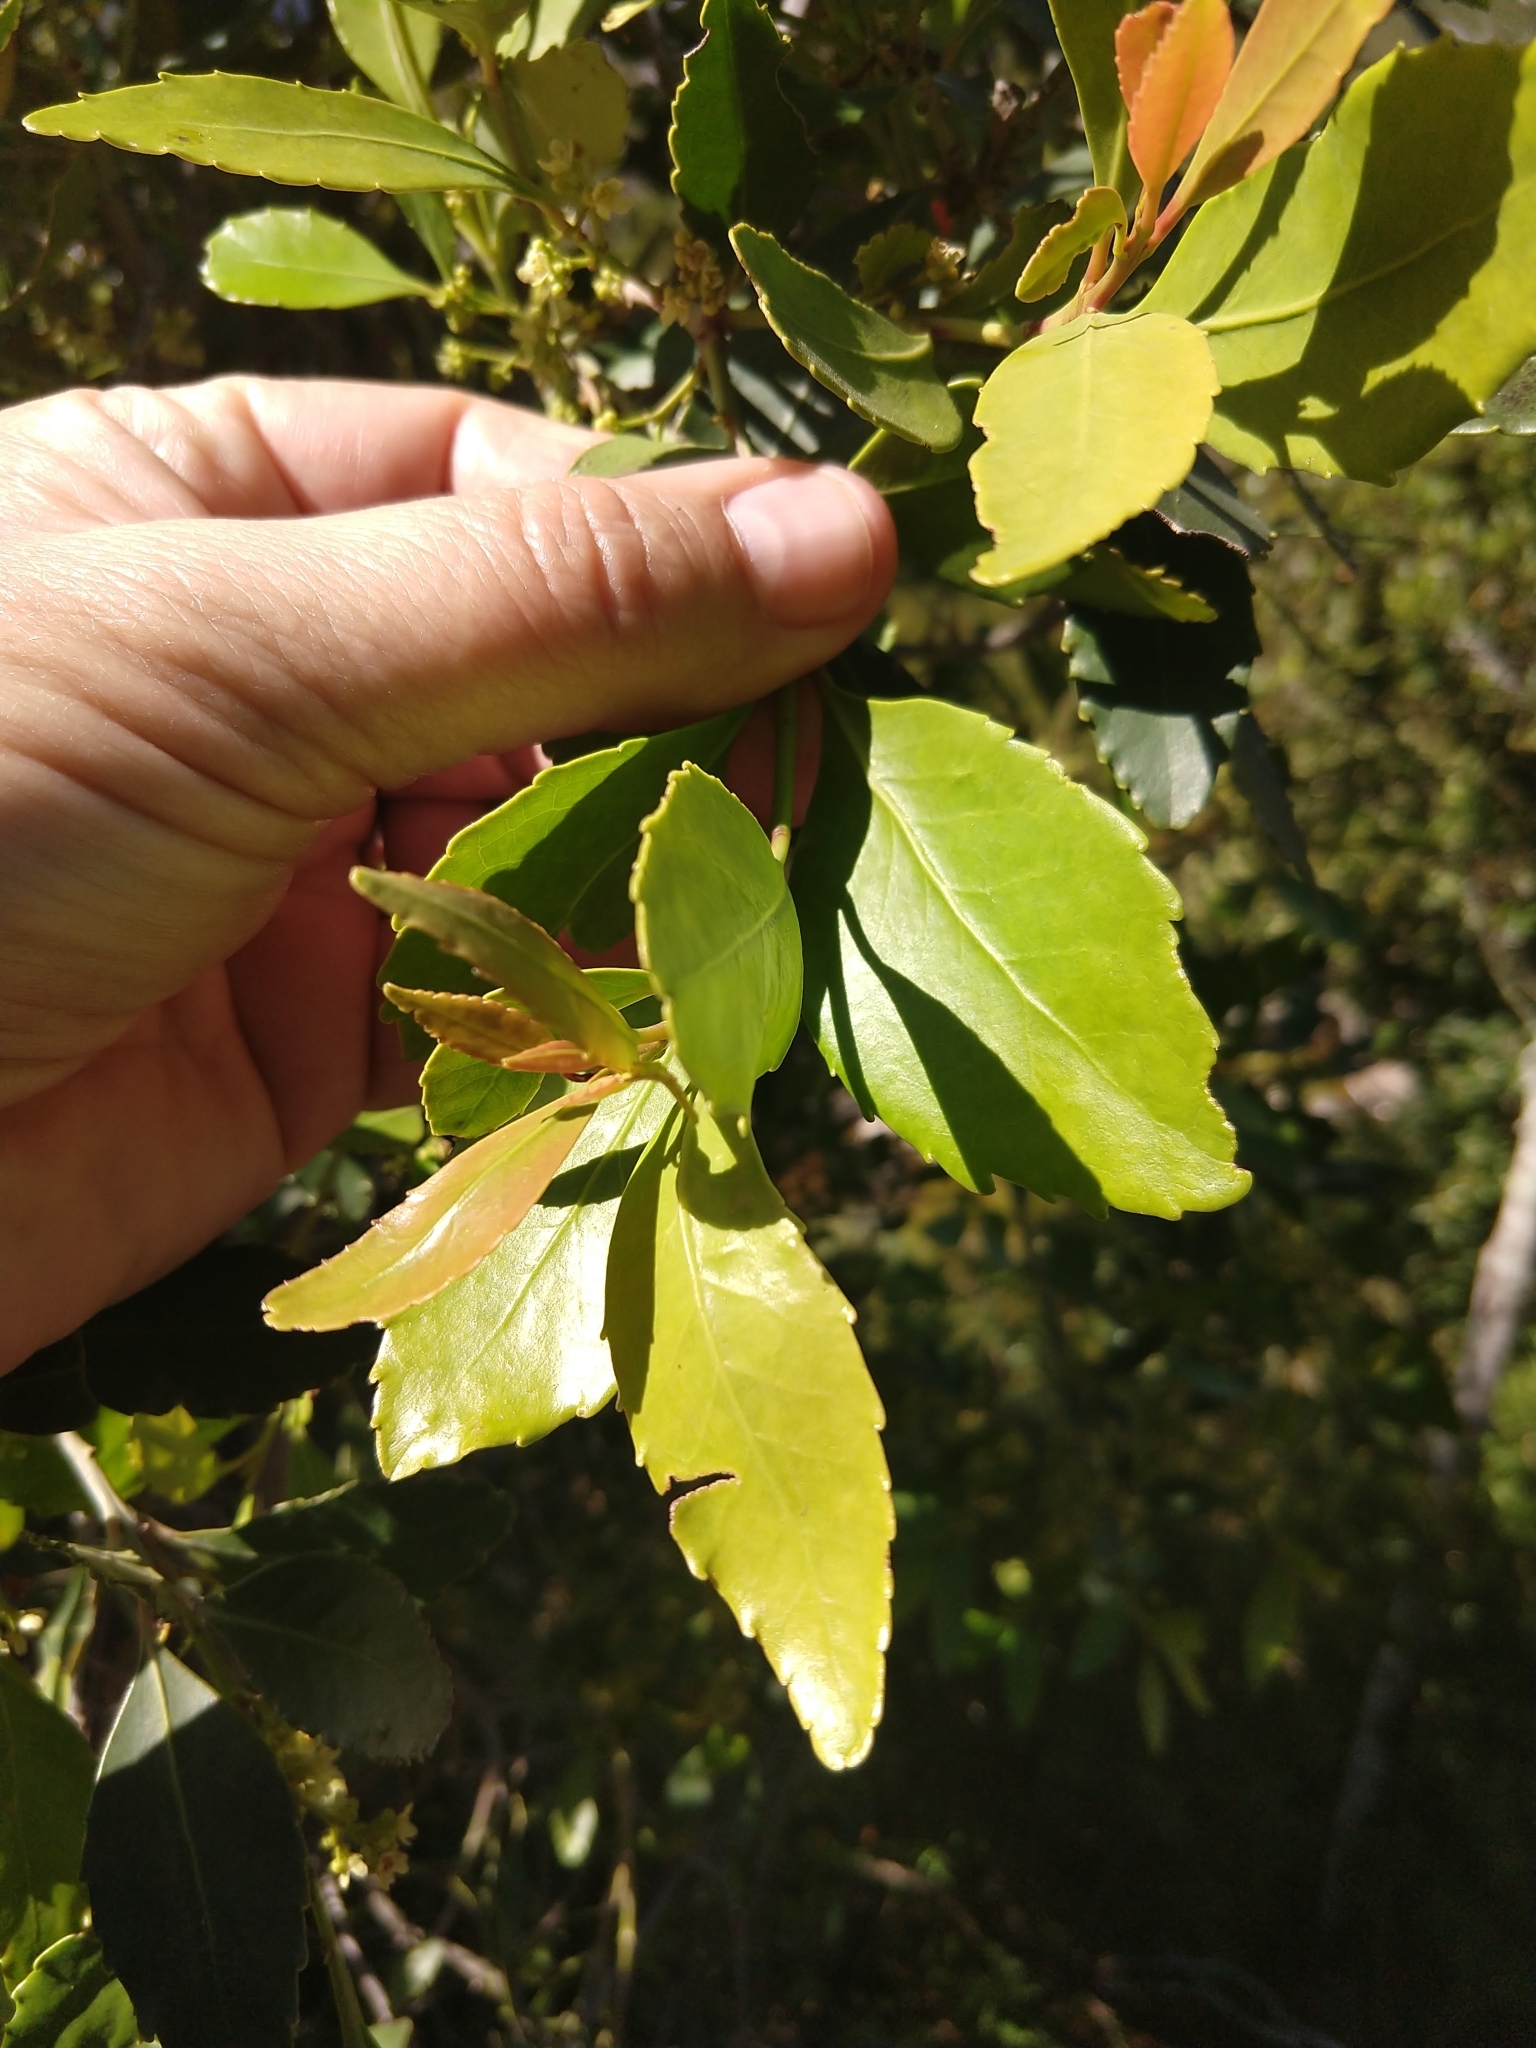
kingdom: Plantae
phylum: Tracheophyta
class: Magnoliopsida
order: Celastrales
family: Celastraceae
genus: Elaeodendron
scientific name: Elaeodendron schinoides
